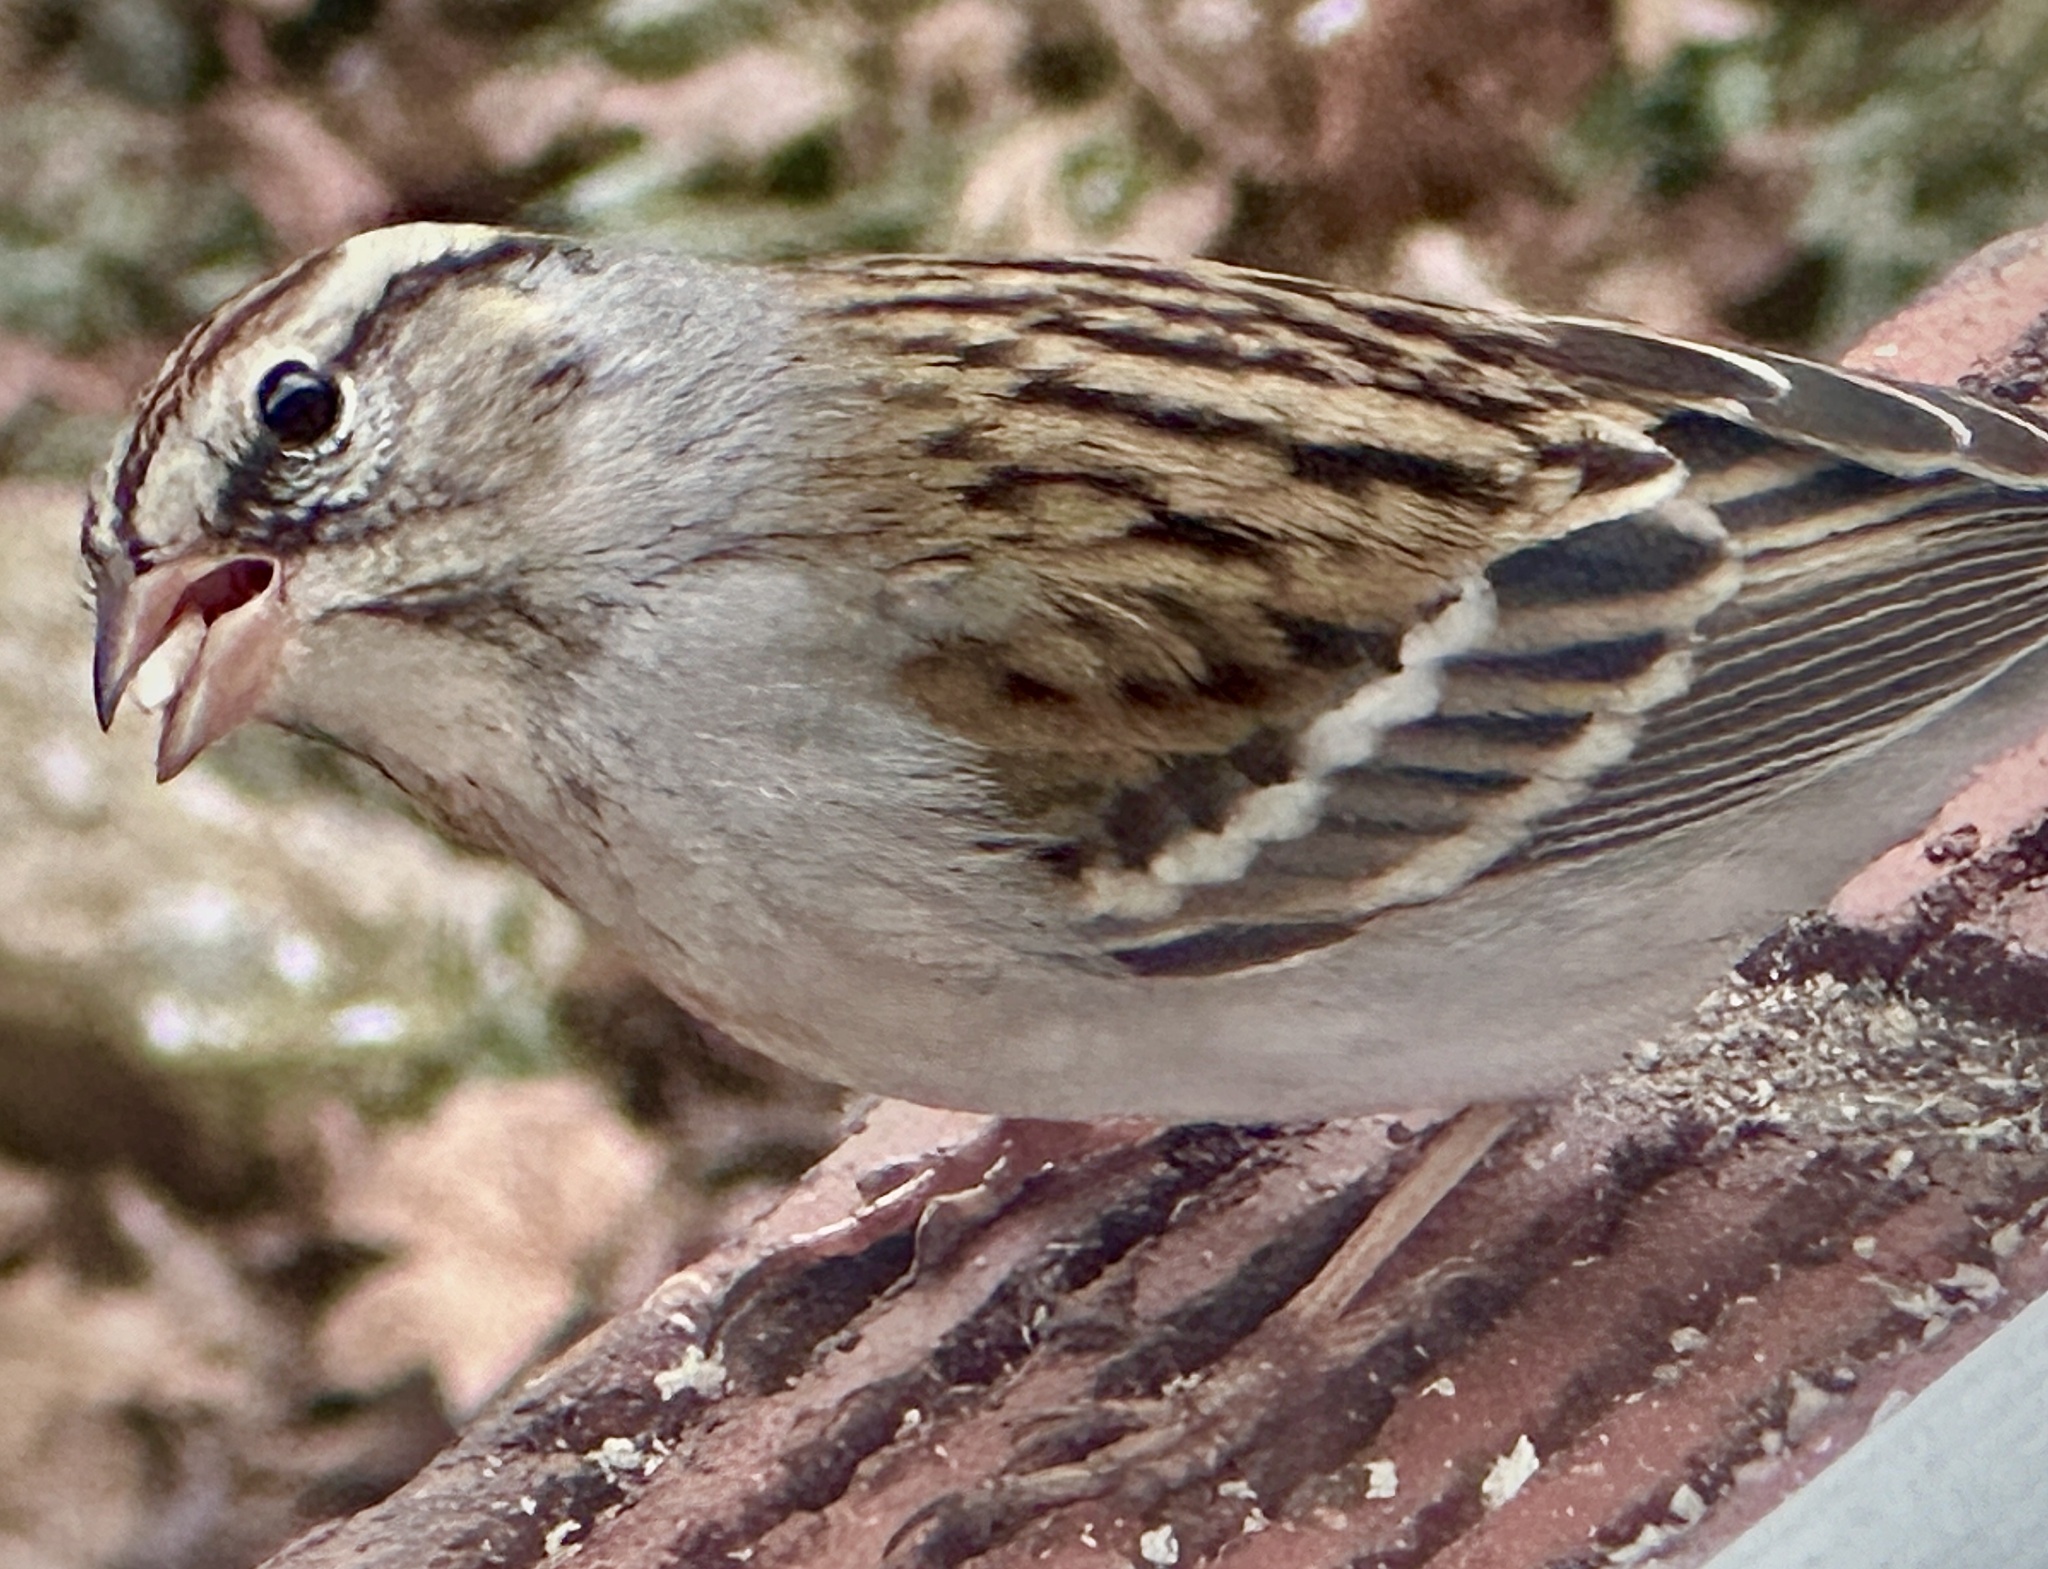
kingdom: Animalia
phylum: Chordata
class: Aves
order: Passeriformes
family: Passerellidae
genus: Spizella
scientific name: Spizella passerina
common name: Chipping sparrow
